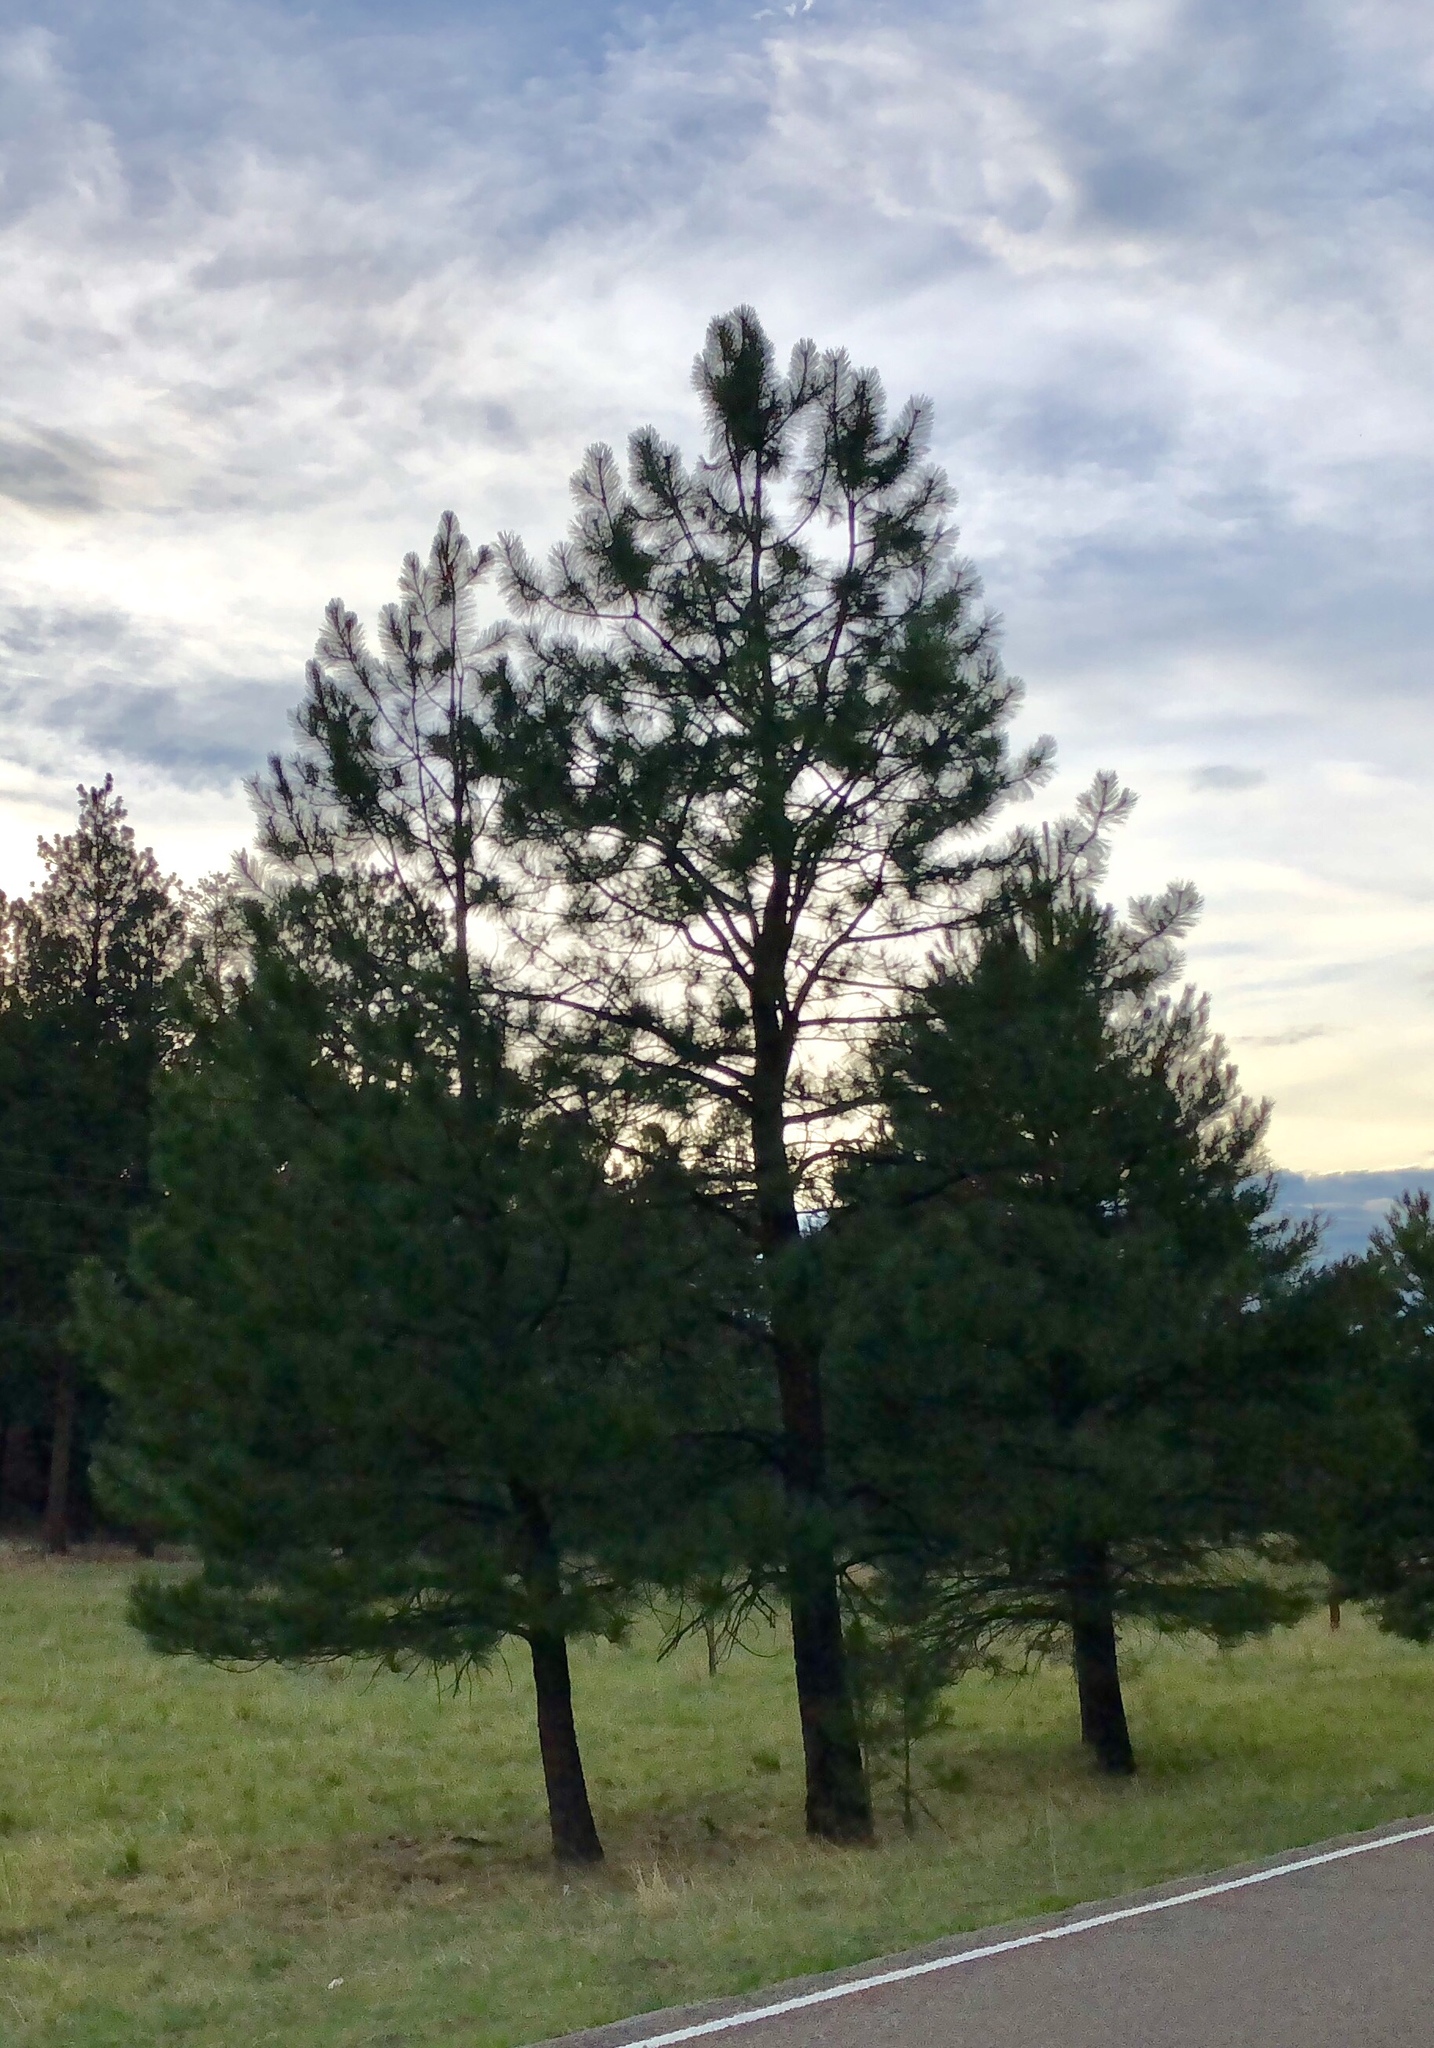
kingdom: Plantae
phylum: Tracheophyta
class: Pinopsida
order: Pinales
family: Pinaceae
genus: Pinus
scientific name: Pinus ponderosa
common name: Western yellow-pine
